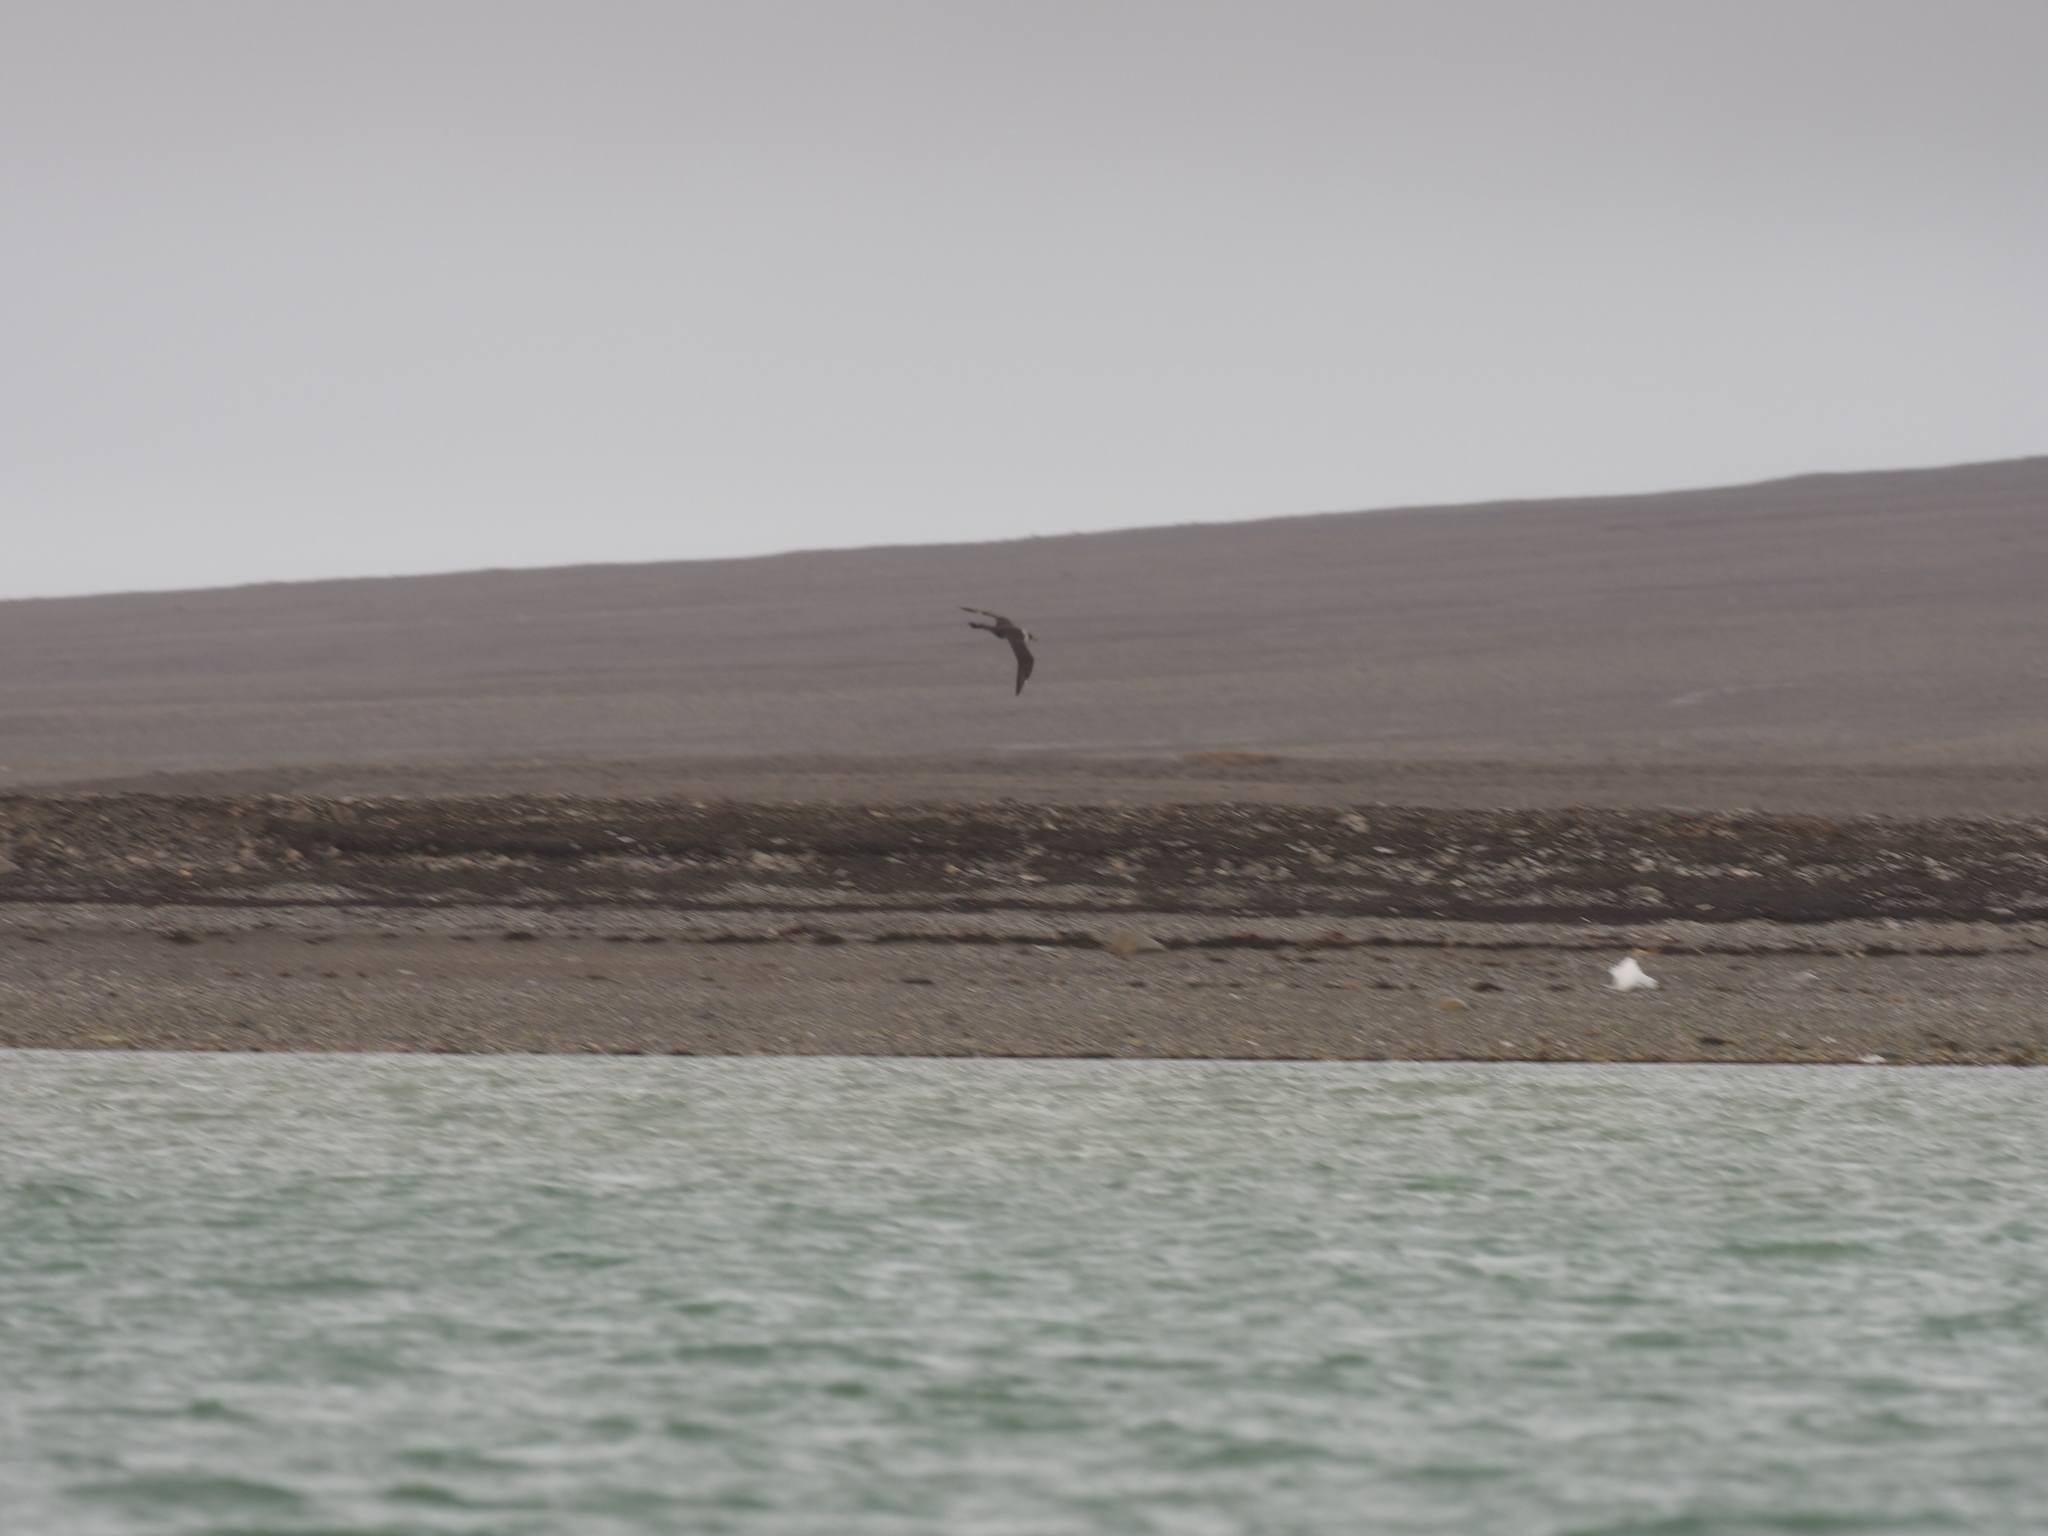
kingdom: Animalia
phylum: Chordata
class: Aves
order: Charadriiformes
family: Stercorariidae
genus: Stercorarius
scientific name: Stercorarius pomarinus
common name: Pomarine jaeger
